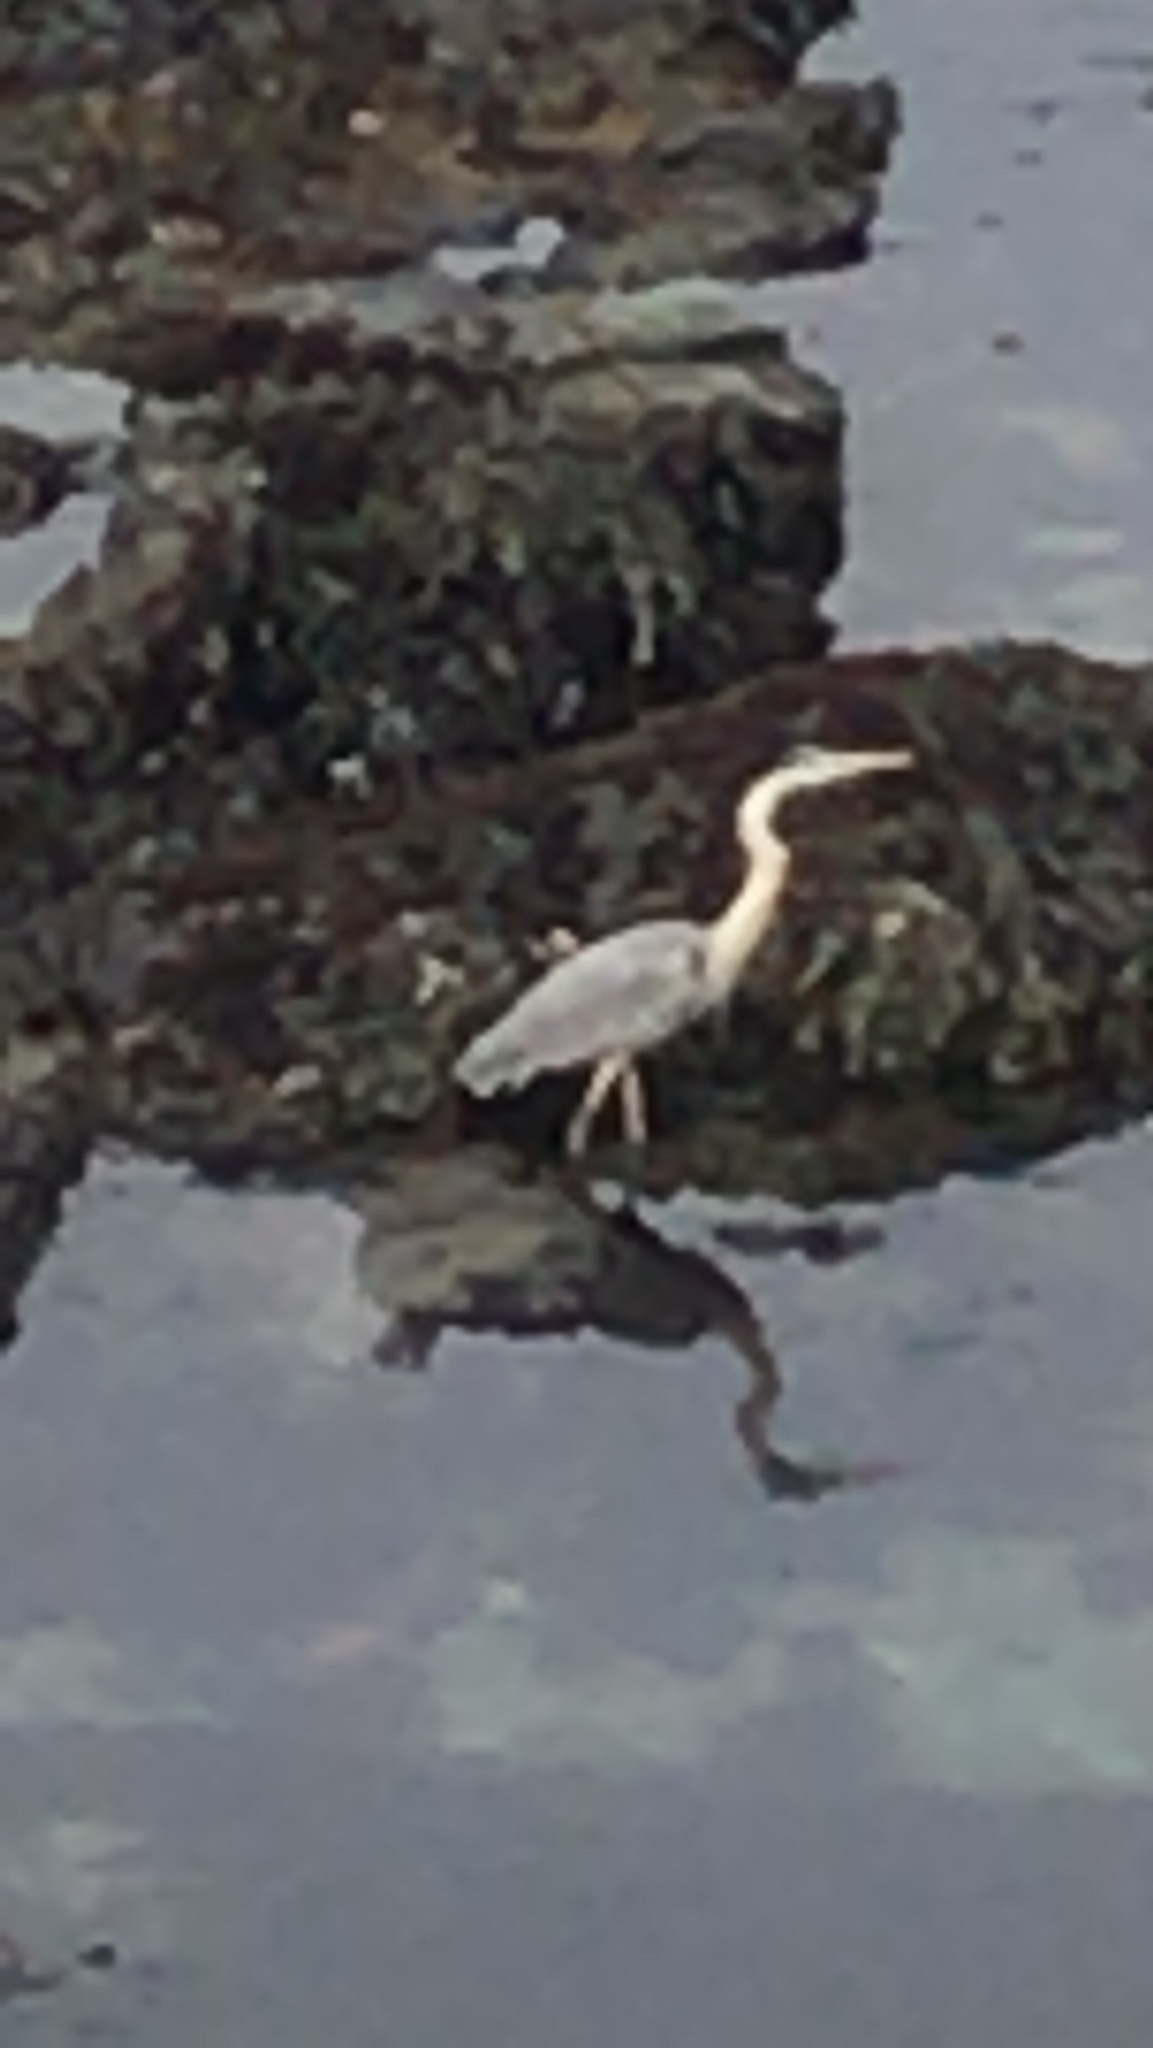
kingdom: Animalia
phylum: Chordata
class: Aves
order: Pelecaniformes
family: Ardeidae
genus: Ardea
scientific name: Ardea herodias
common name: Great blue heron
